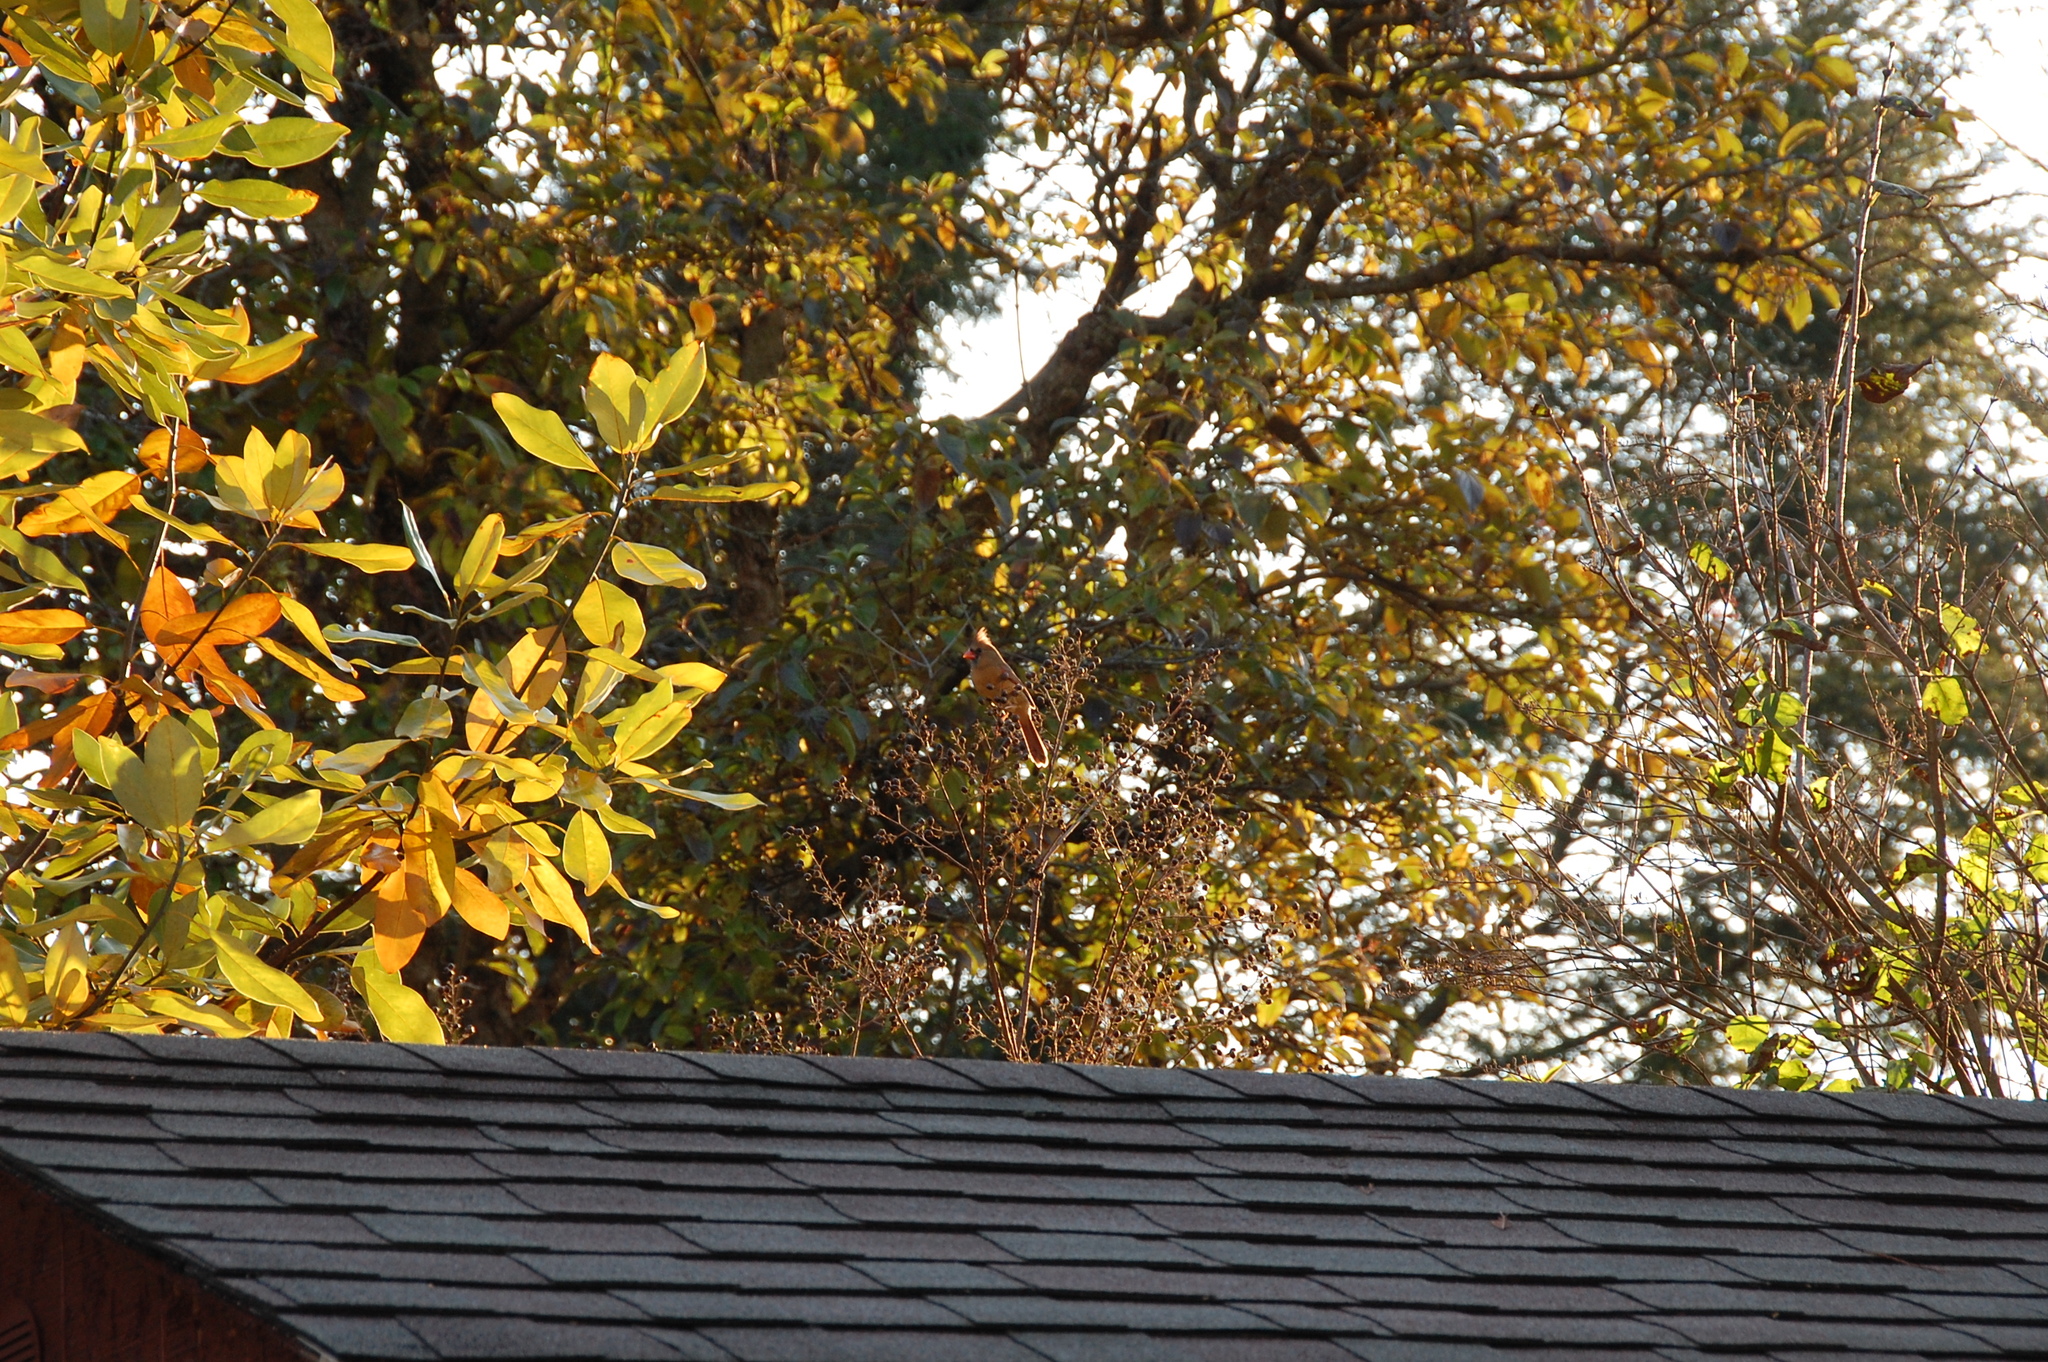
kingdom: Animalia
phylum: Chordata
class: Aves
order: Passeriformes
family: Cardinalidae
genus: Cardinalis
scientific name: Cardinalis cardinalis
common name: Northern cardinal
